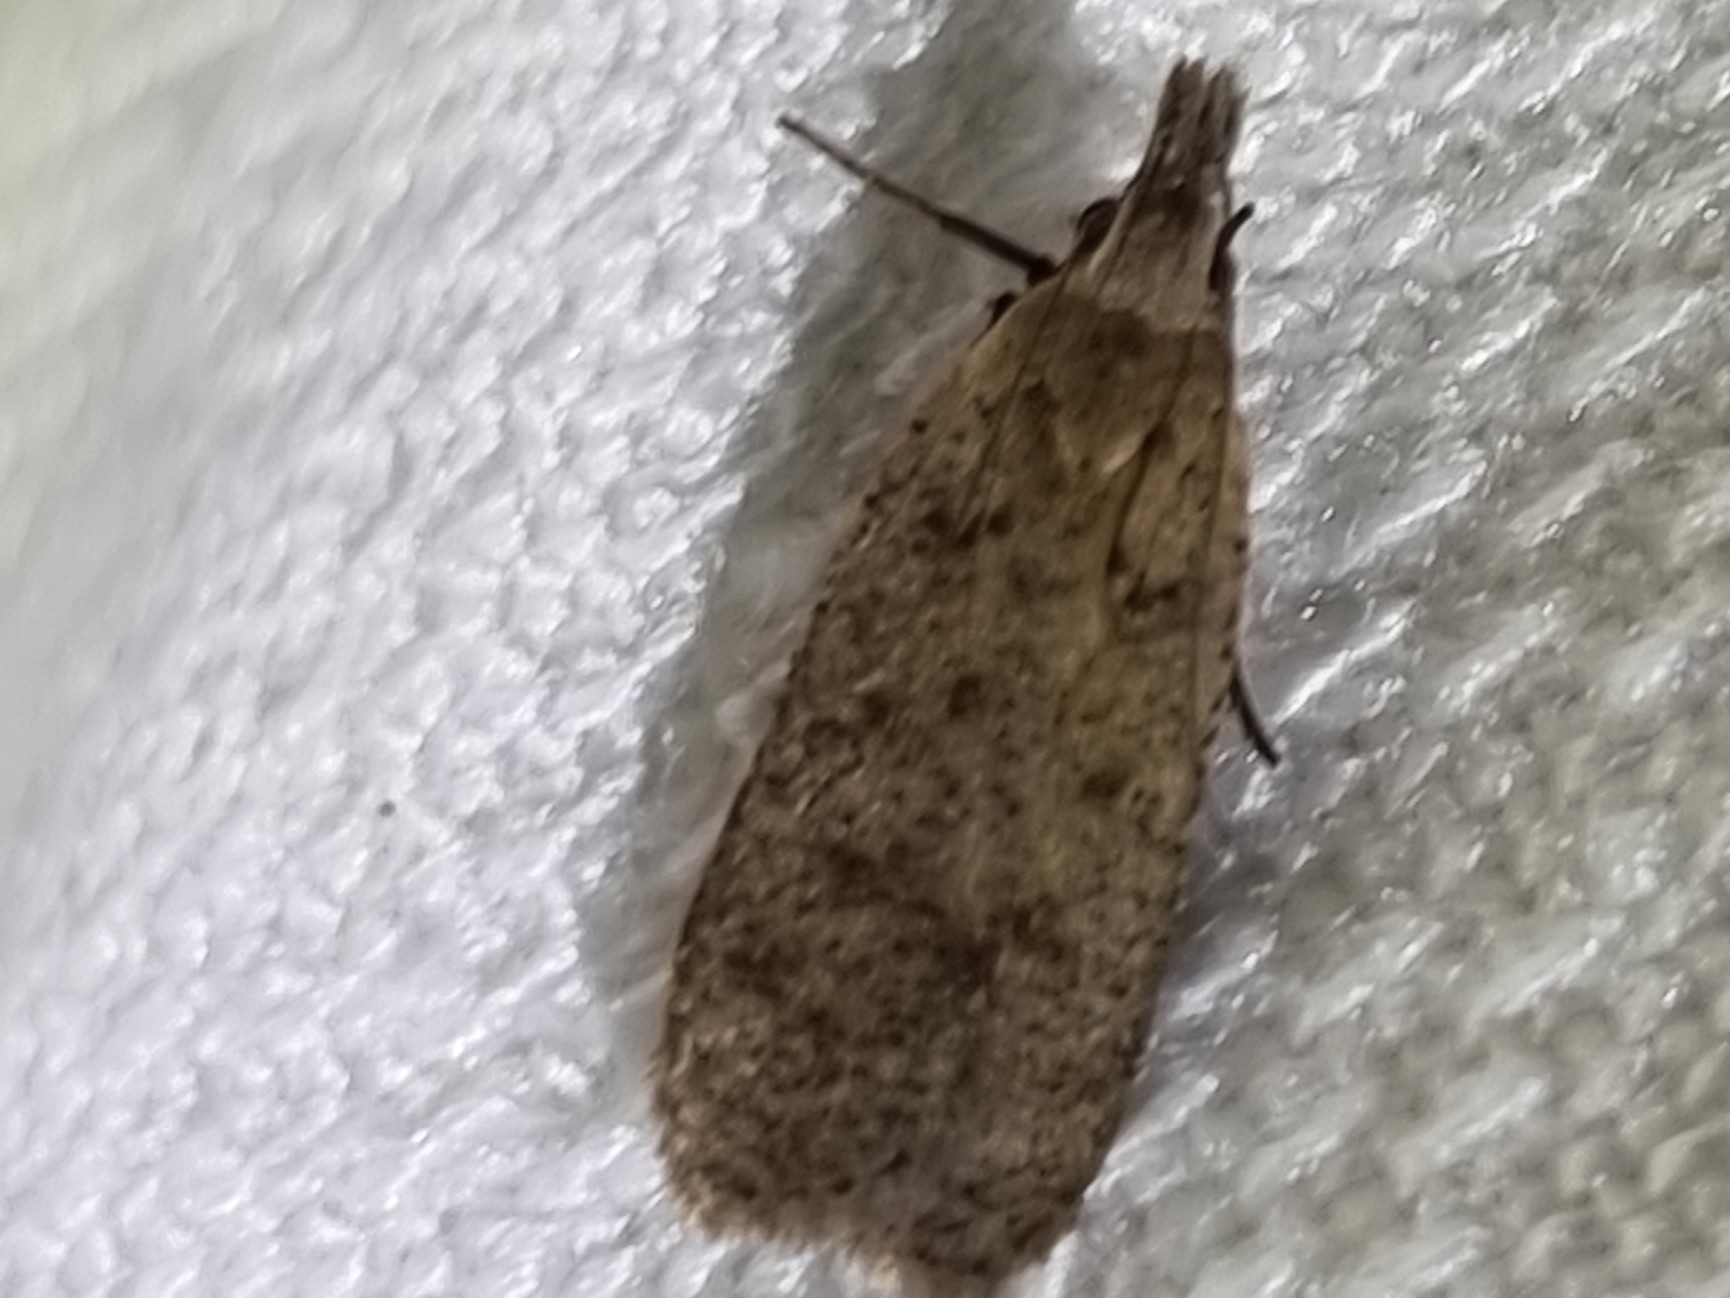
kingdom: Animalia
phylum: Arthropoda
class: Insecta
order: Lepidoptera
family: Gelechiidae
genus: Dichomeris
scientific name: Dichomeris capnites
